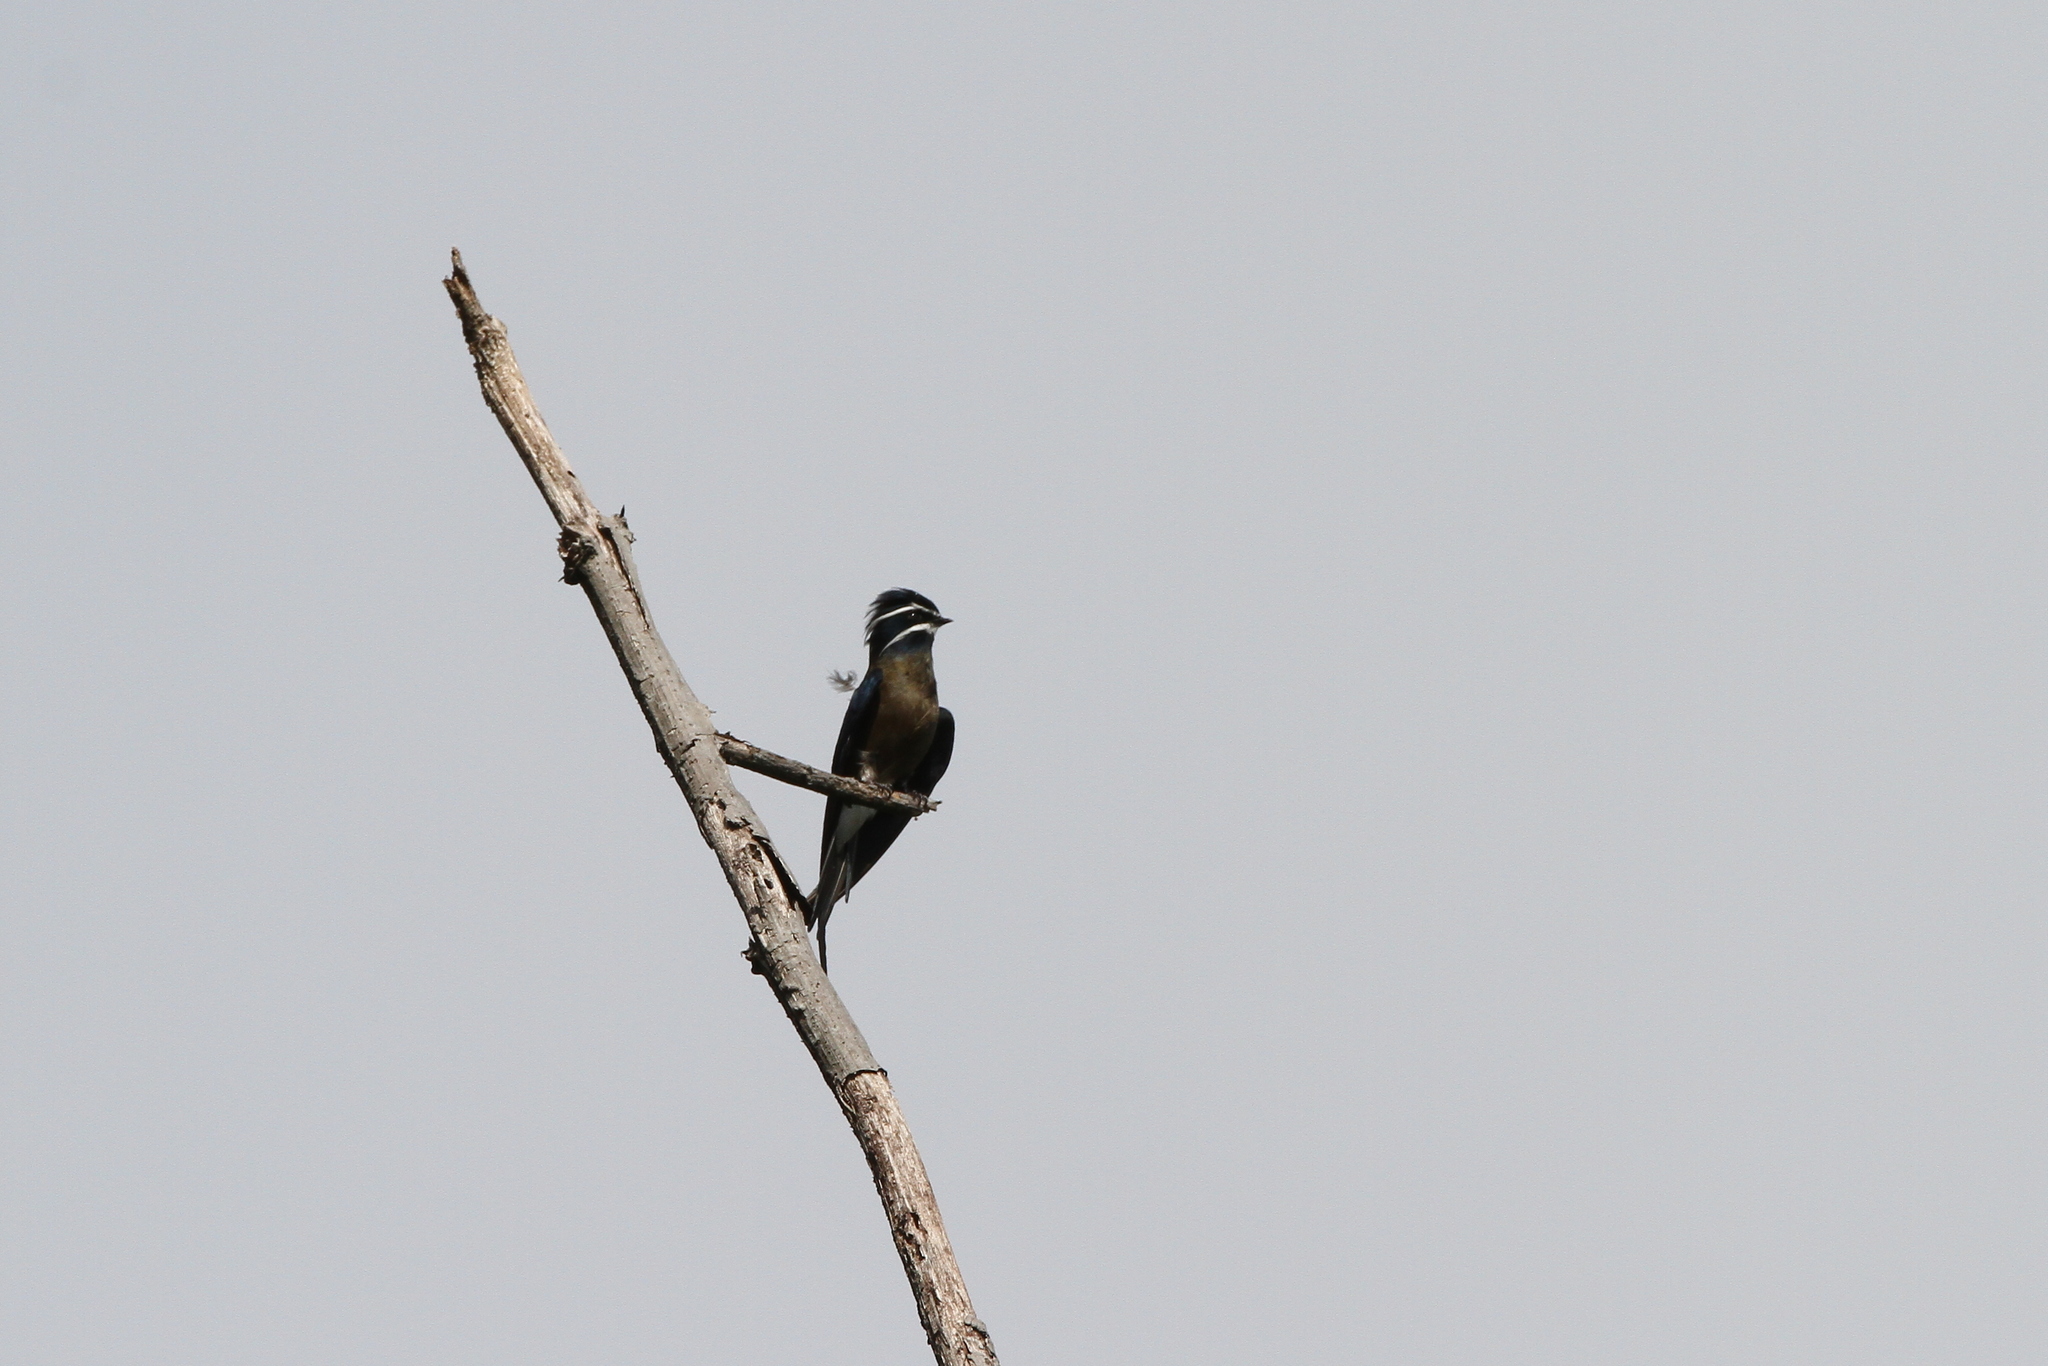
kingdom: Animalia
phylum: Chordata
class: Aves
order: Apodiformes
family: Hemiprocnidae
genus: Hemiprocne
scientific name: Hemiprocne comata
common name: Whiskered treeswift
